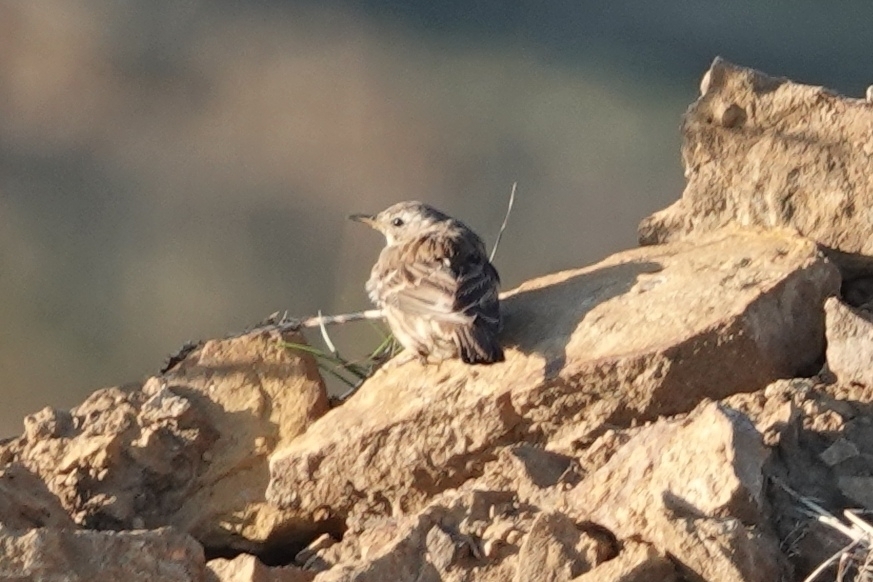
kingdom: Animalia
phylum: Chordata
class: Aves
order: Passeriformes
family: Motacillidae
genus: Anthus
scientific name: Anthus spinoletta
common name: Water pipit
